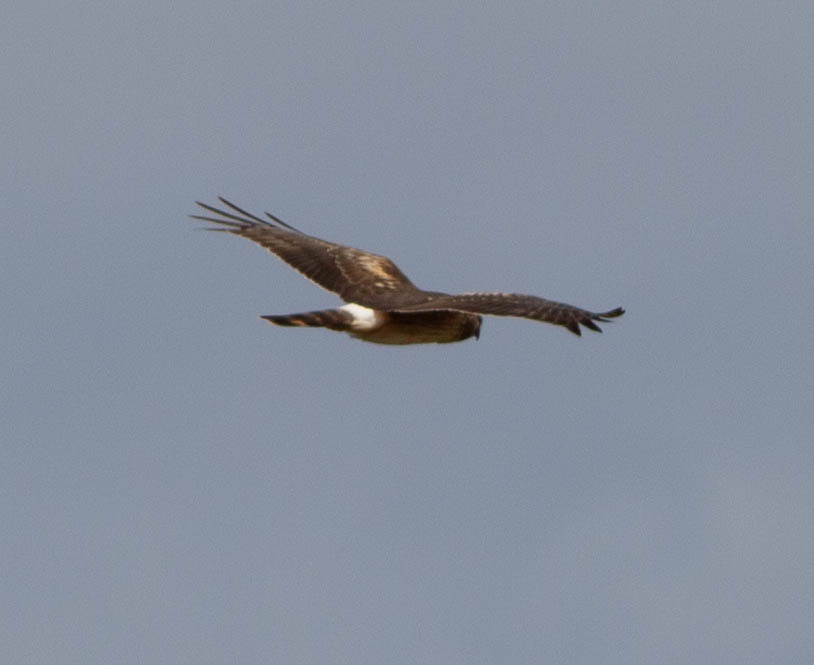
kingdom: Animalia
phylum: Chordata
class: Aves
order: Accipitriformes
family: Accipitridae
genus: Circus
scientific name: Circus cyaneus
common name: Hen harrier
